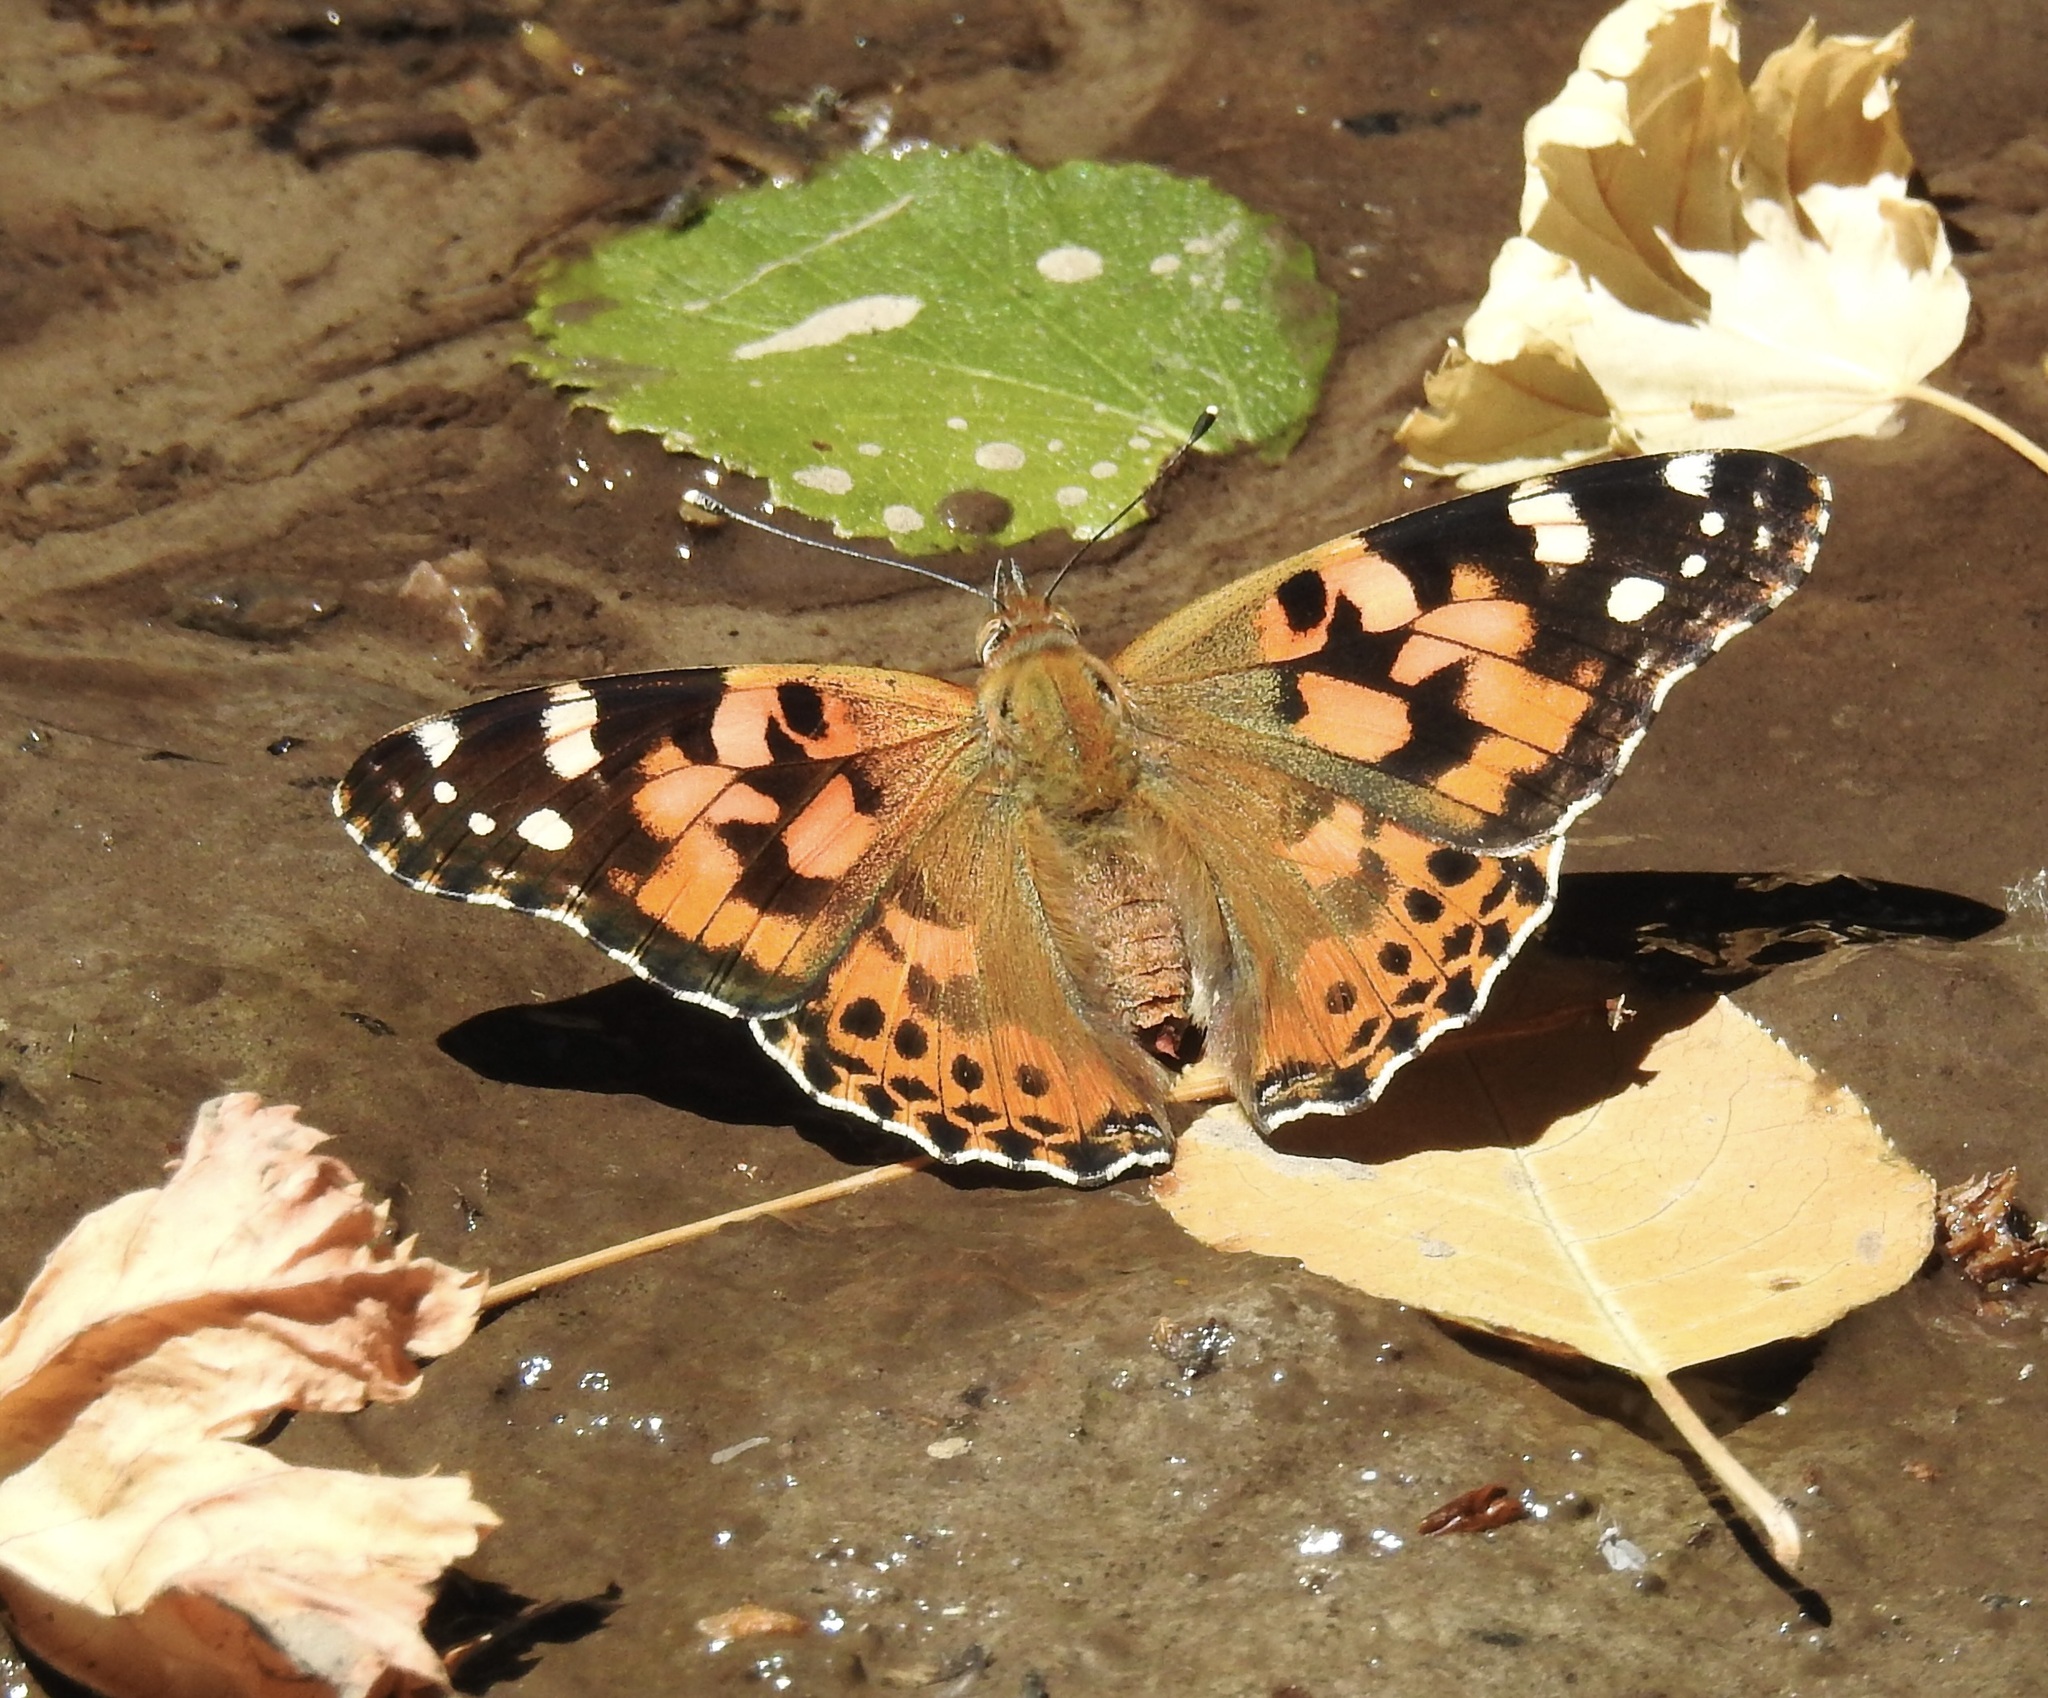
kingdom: Animalia
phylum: Arthropoda
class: Insecta
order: Lepidoptera
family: Nymphalidae
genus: Vanessa
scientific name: Vanessa cardui
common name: Painted lady
